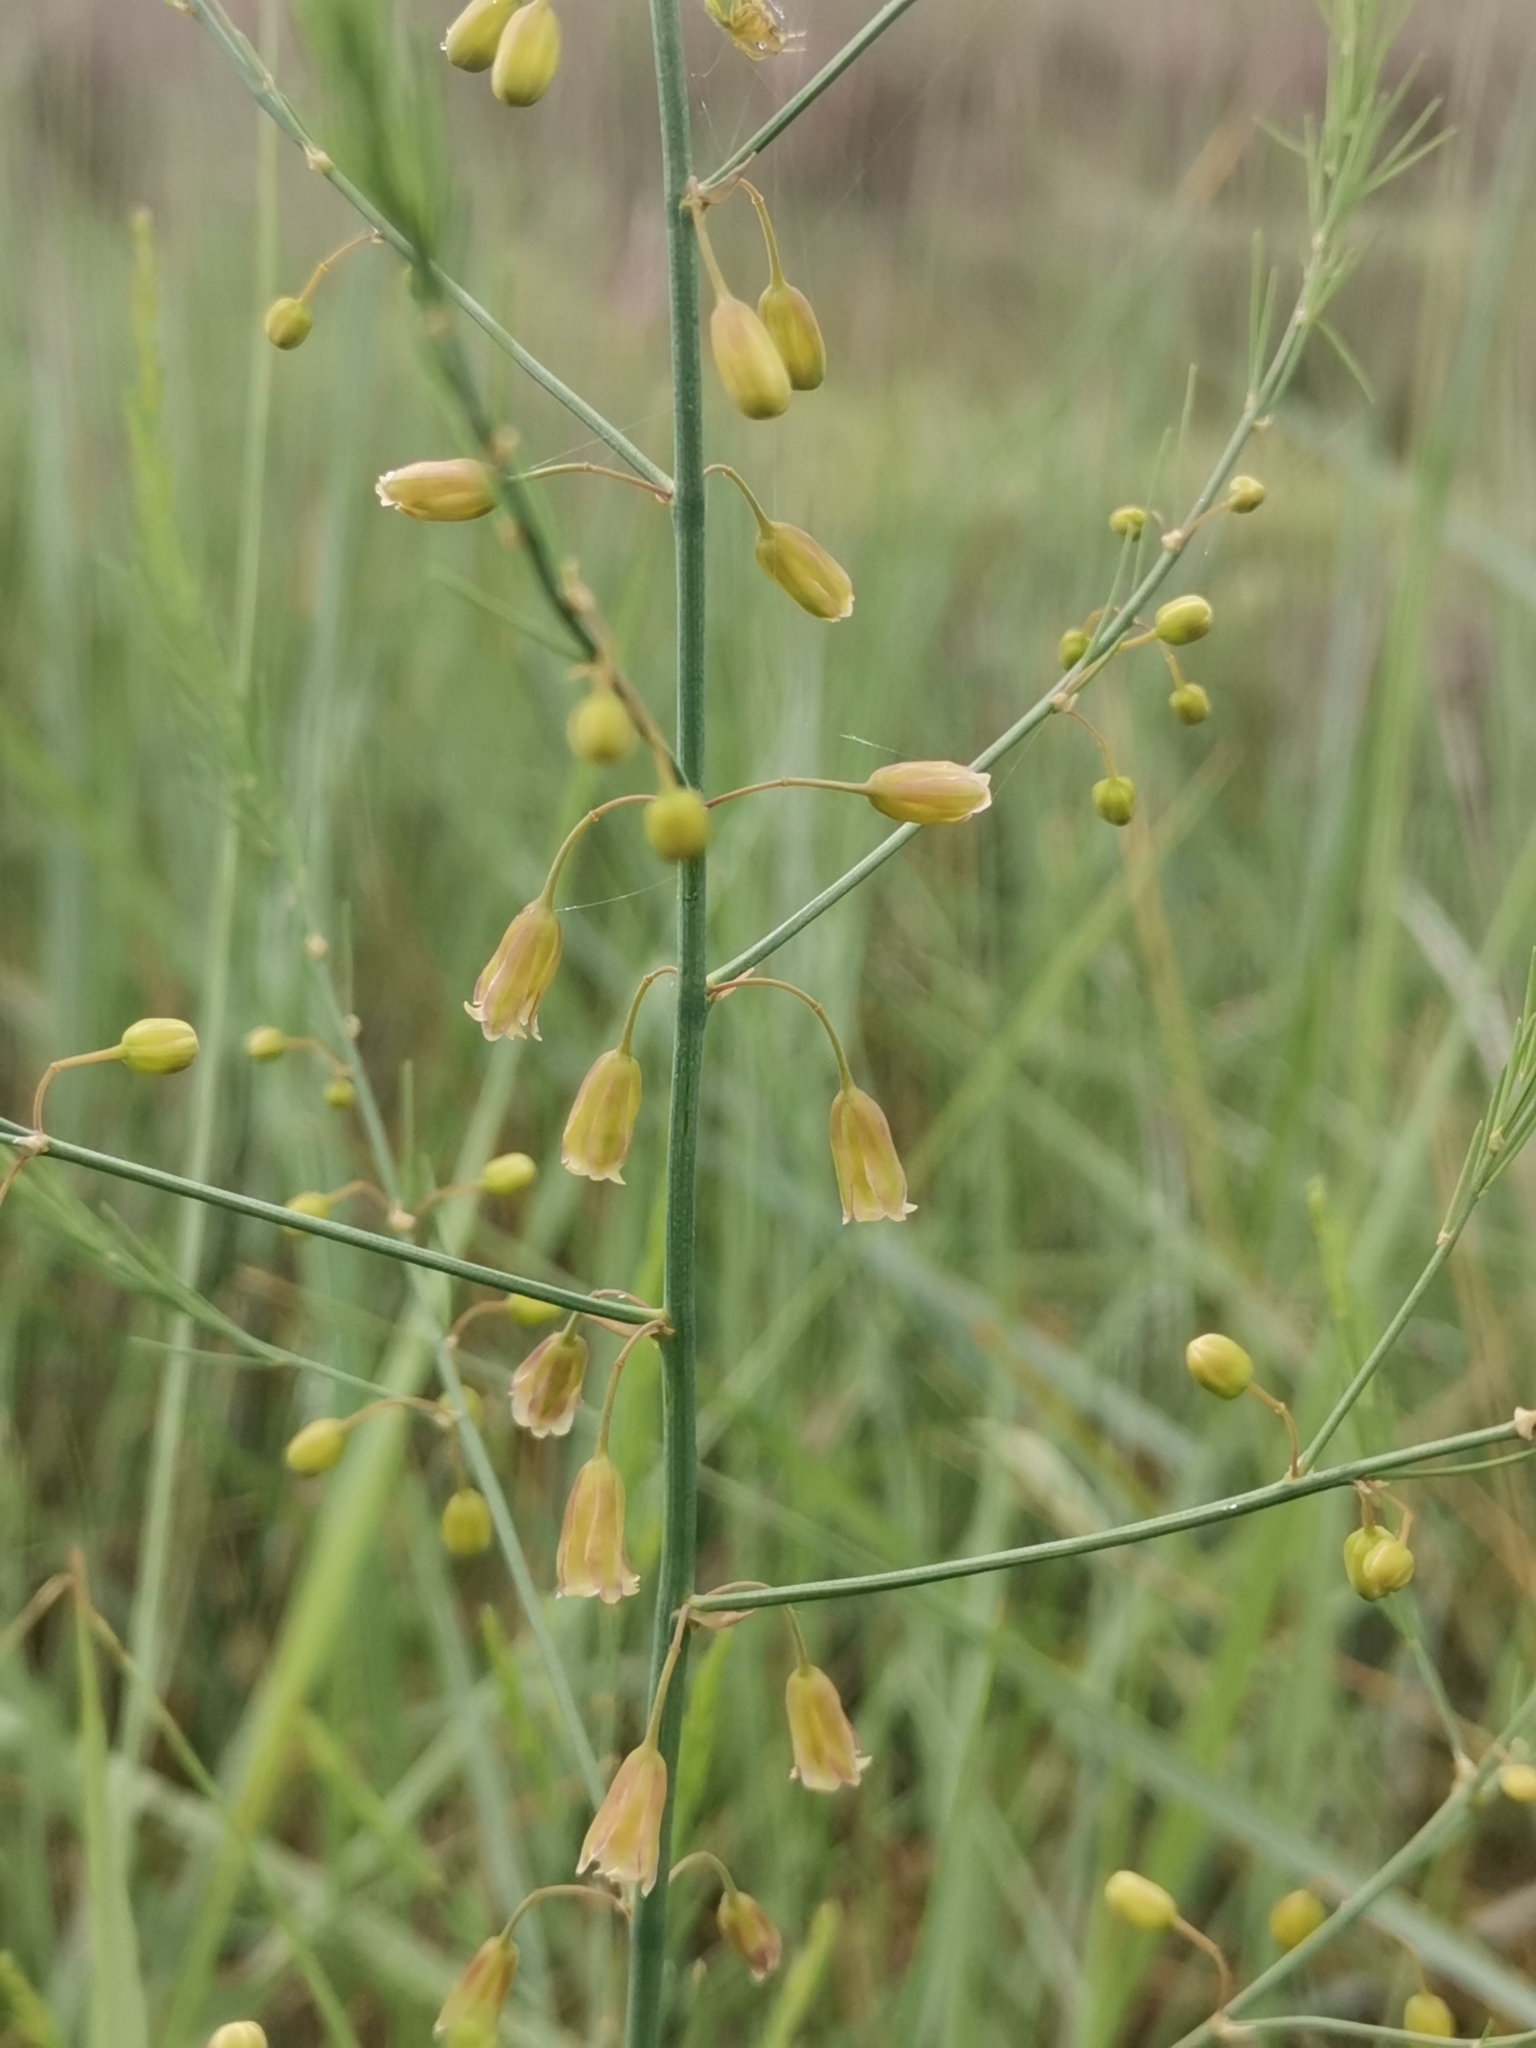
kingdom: Plantae
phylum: Tracheophyta
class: Liliopsida
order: Asparagales
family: Asparagaceae
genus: Asparagus
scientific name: Asparagus maritimus
